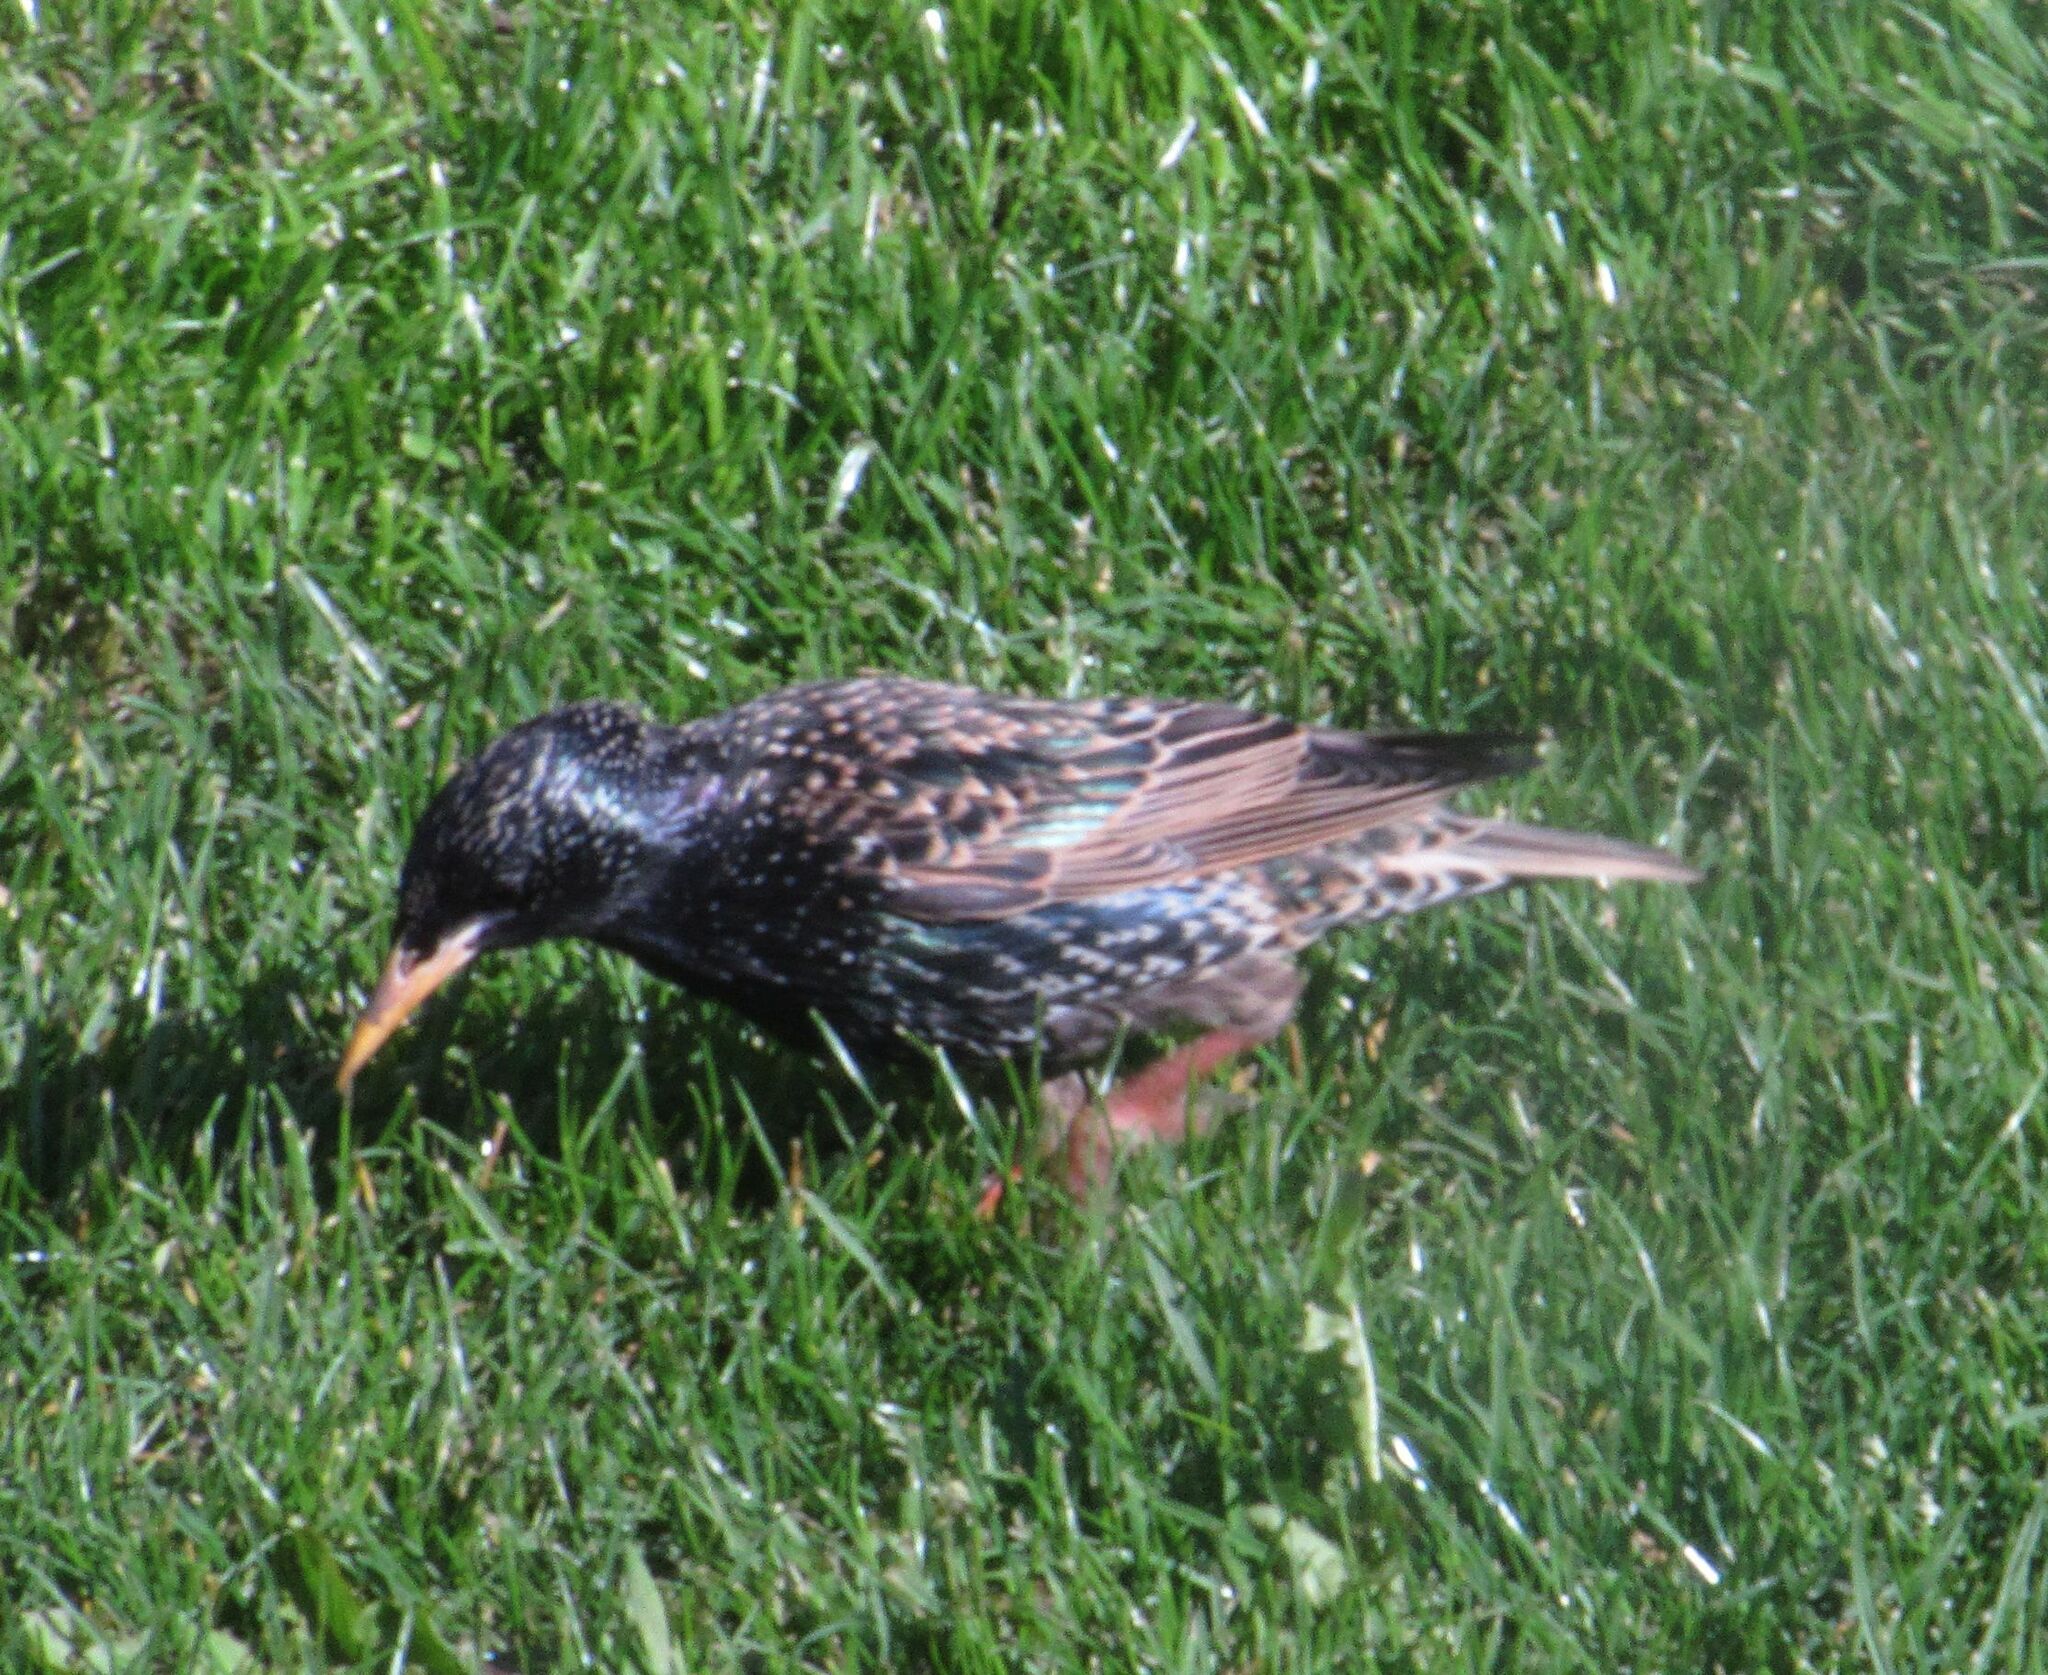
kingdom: Animalia
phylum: Chordata
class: Aves
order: Passeriformes
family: Sturnidae
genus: Sturnus
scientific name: Sturnus vulgaris
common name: Common starling
